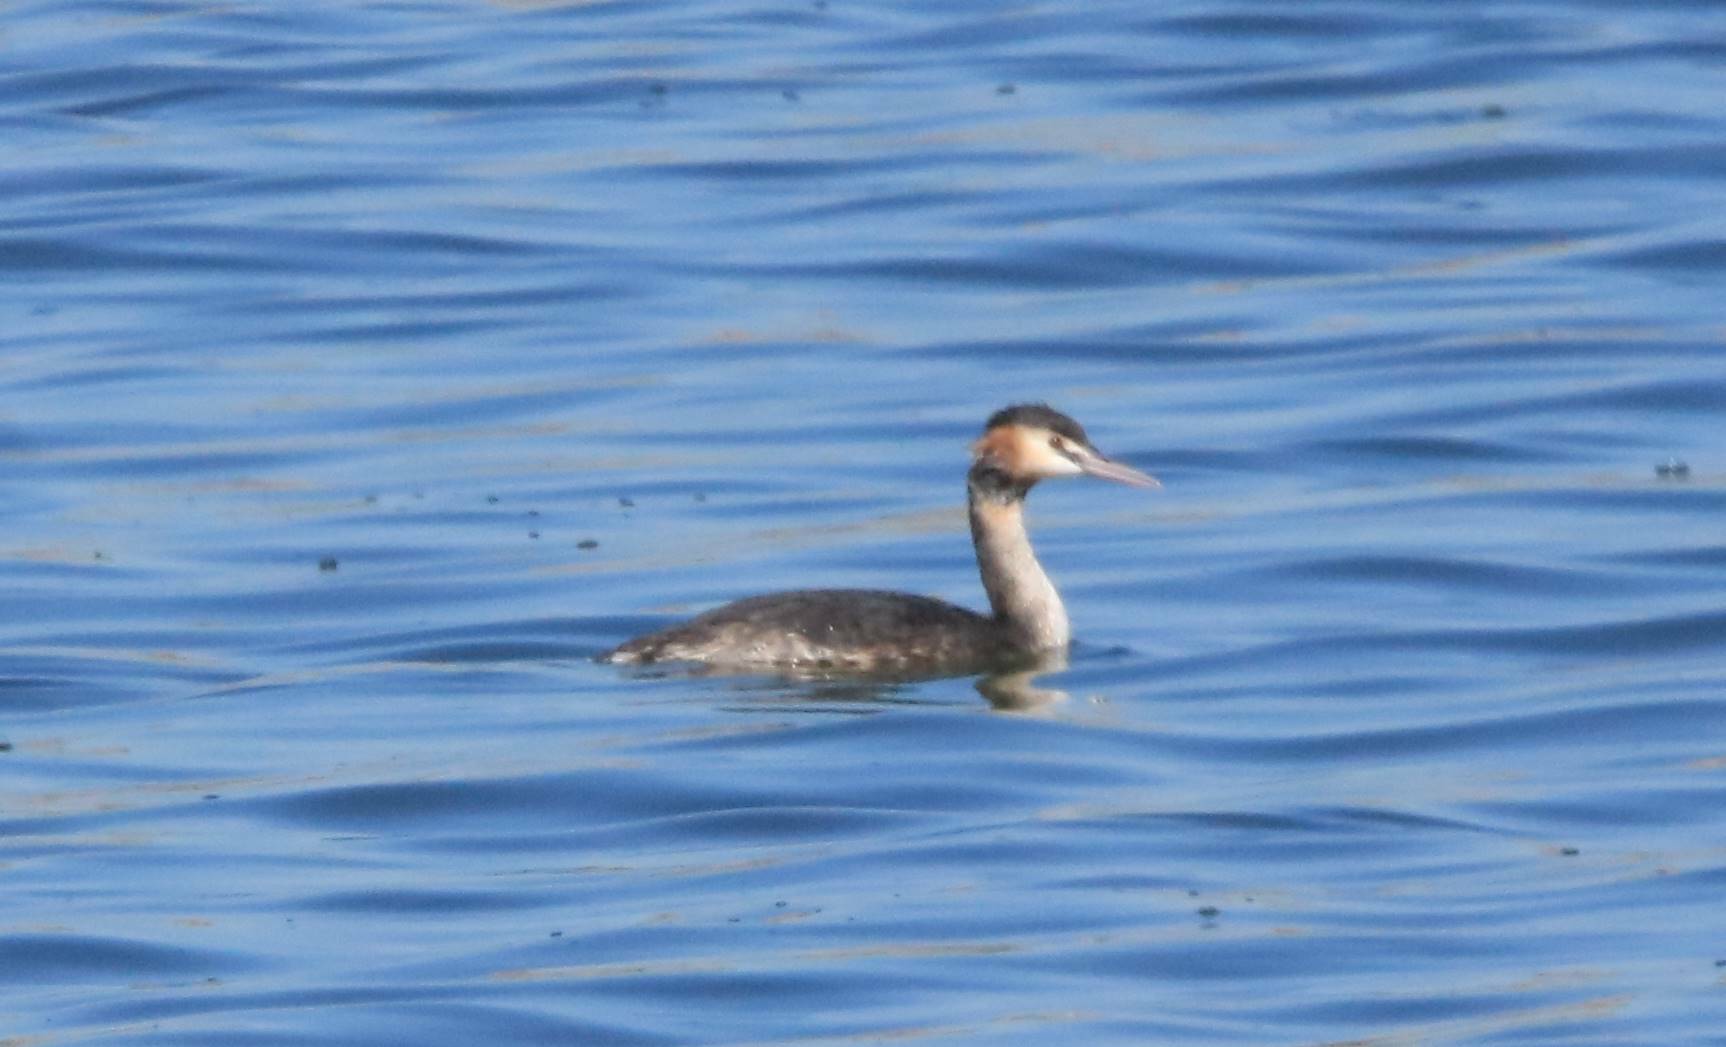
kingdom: Animalia
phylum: Chordata
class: Aves
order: Podicipediformes
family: Podicipedidae
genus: Podiceps
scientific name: Podiceps cristatus
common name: Great crested grebe
